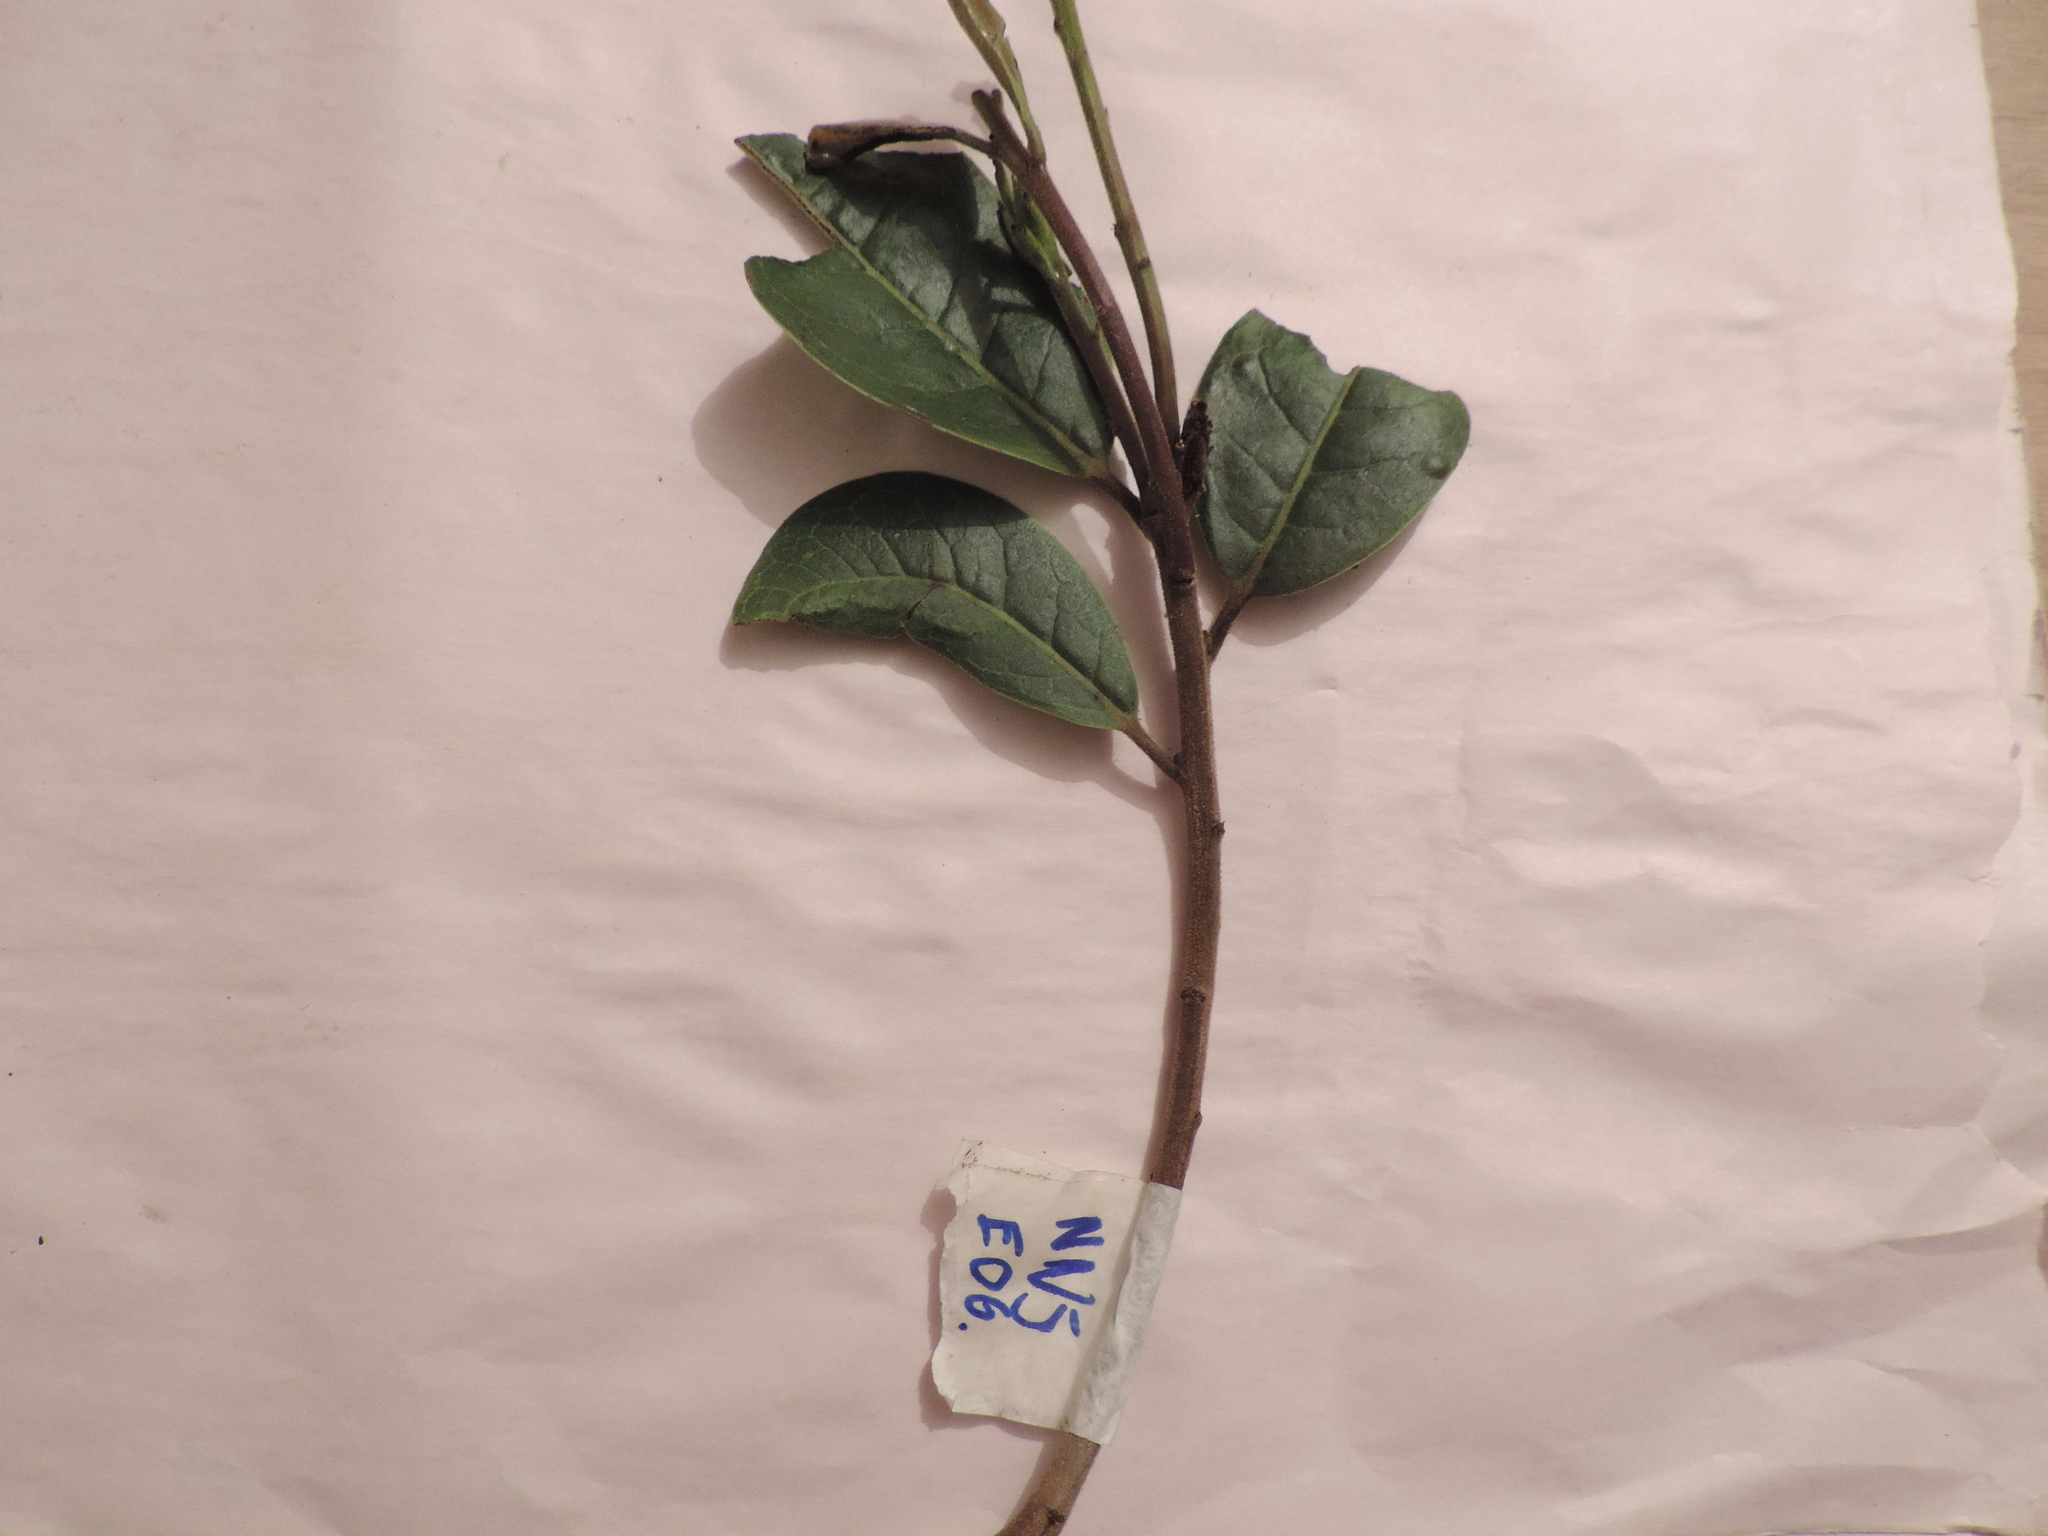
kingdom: Plantae
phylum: Tracheophyta
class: Magnoliopsida
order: Aquifoliales
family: Aquifoliaceae
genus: Ilex
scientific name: Ilex obtusata
